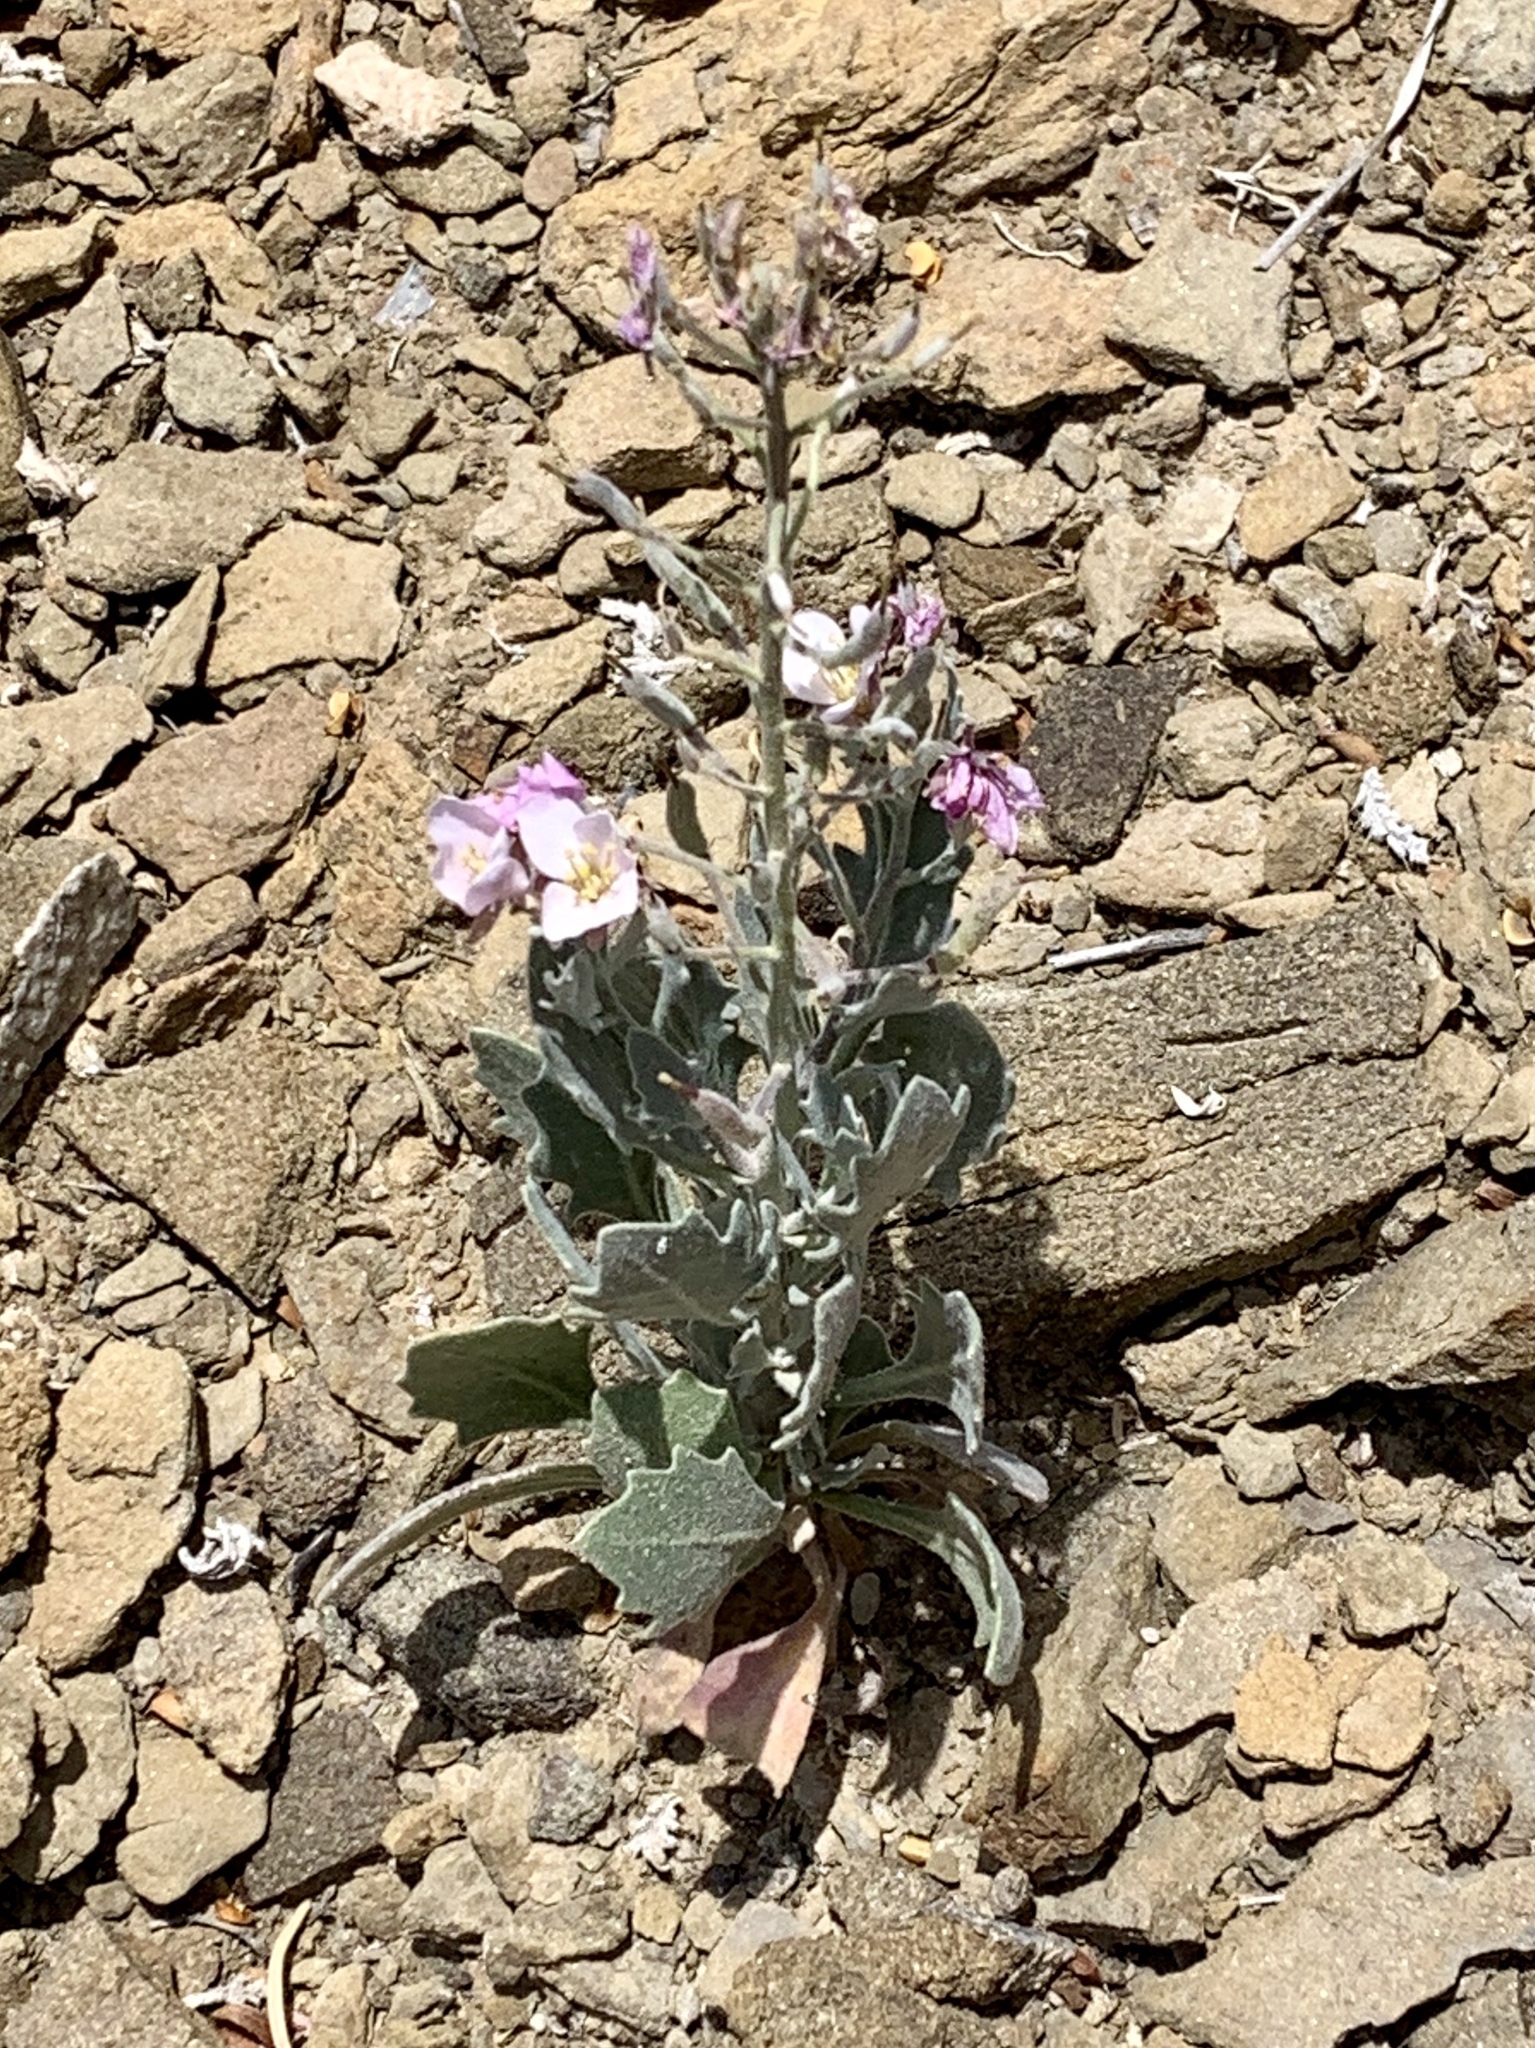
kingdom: Plantae
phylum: Tracheophyta
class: Magnoliopsida
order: Brassicales
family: Brassicaceae
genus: Nerisyrenia
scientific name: Nerisyrenia camporum
